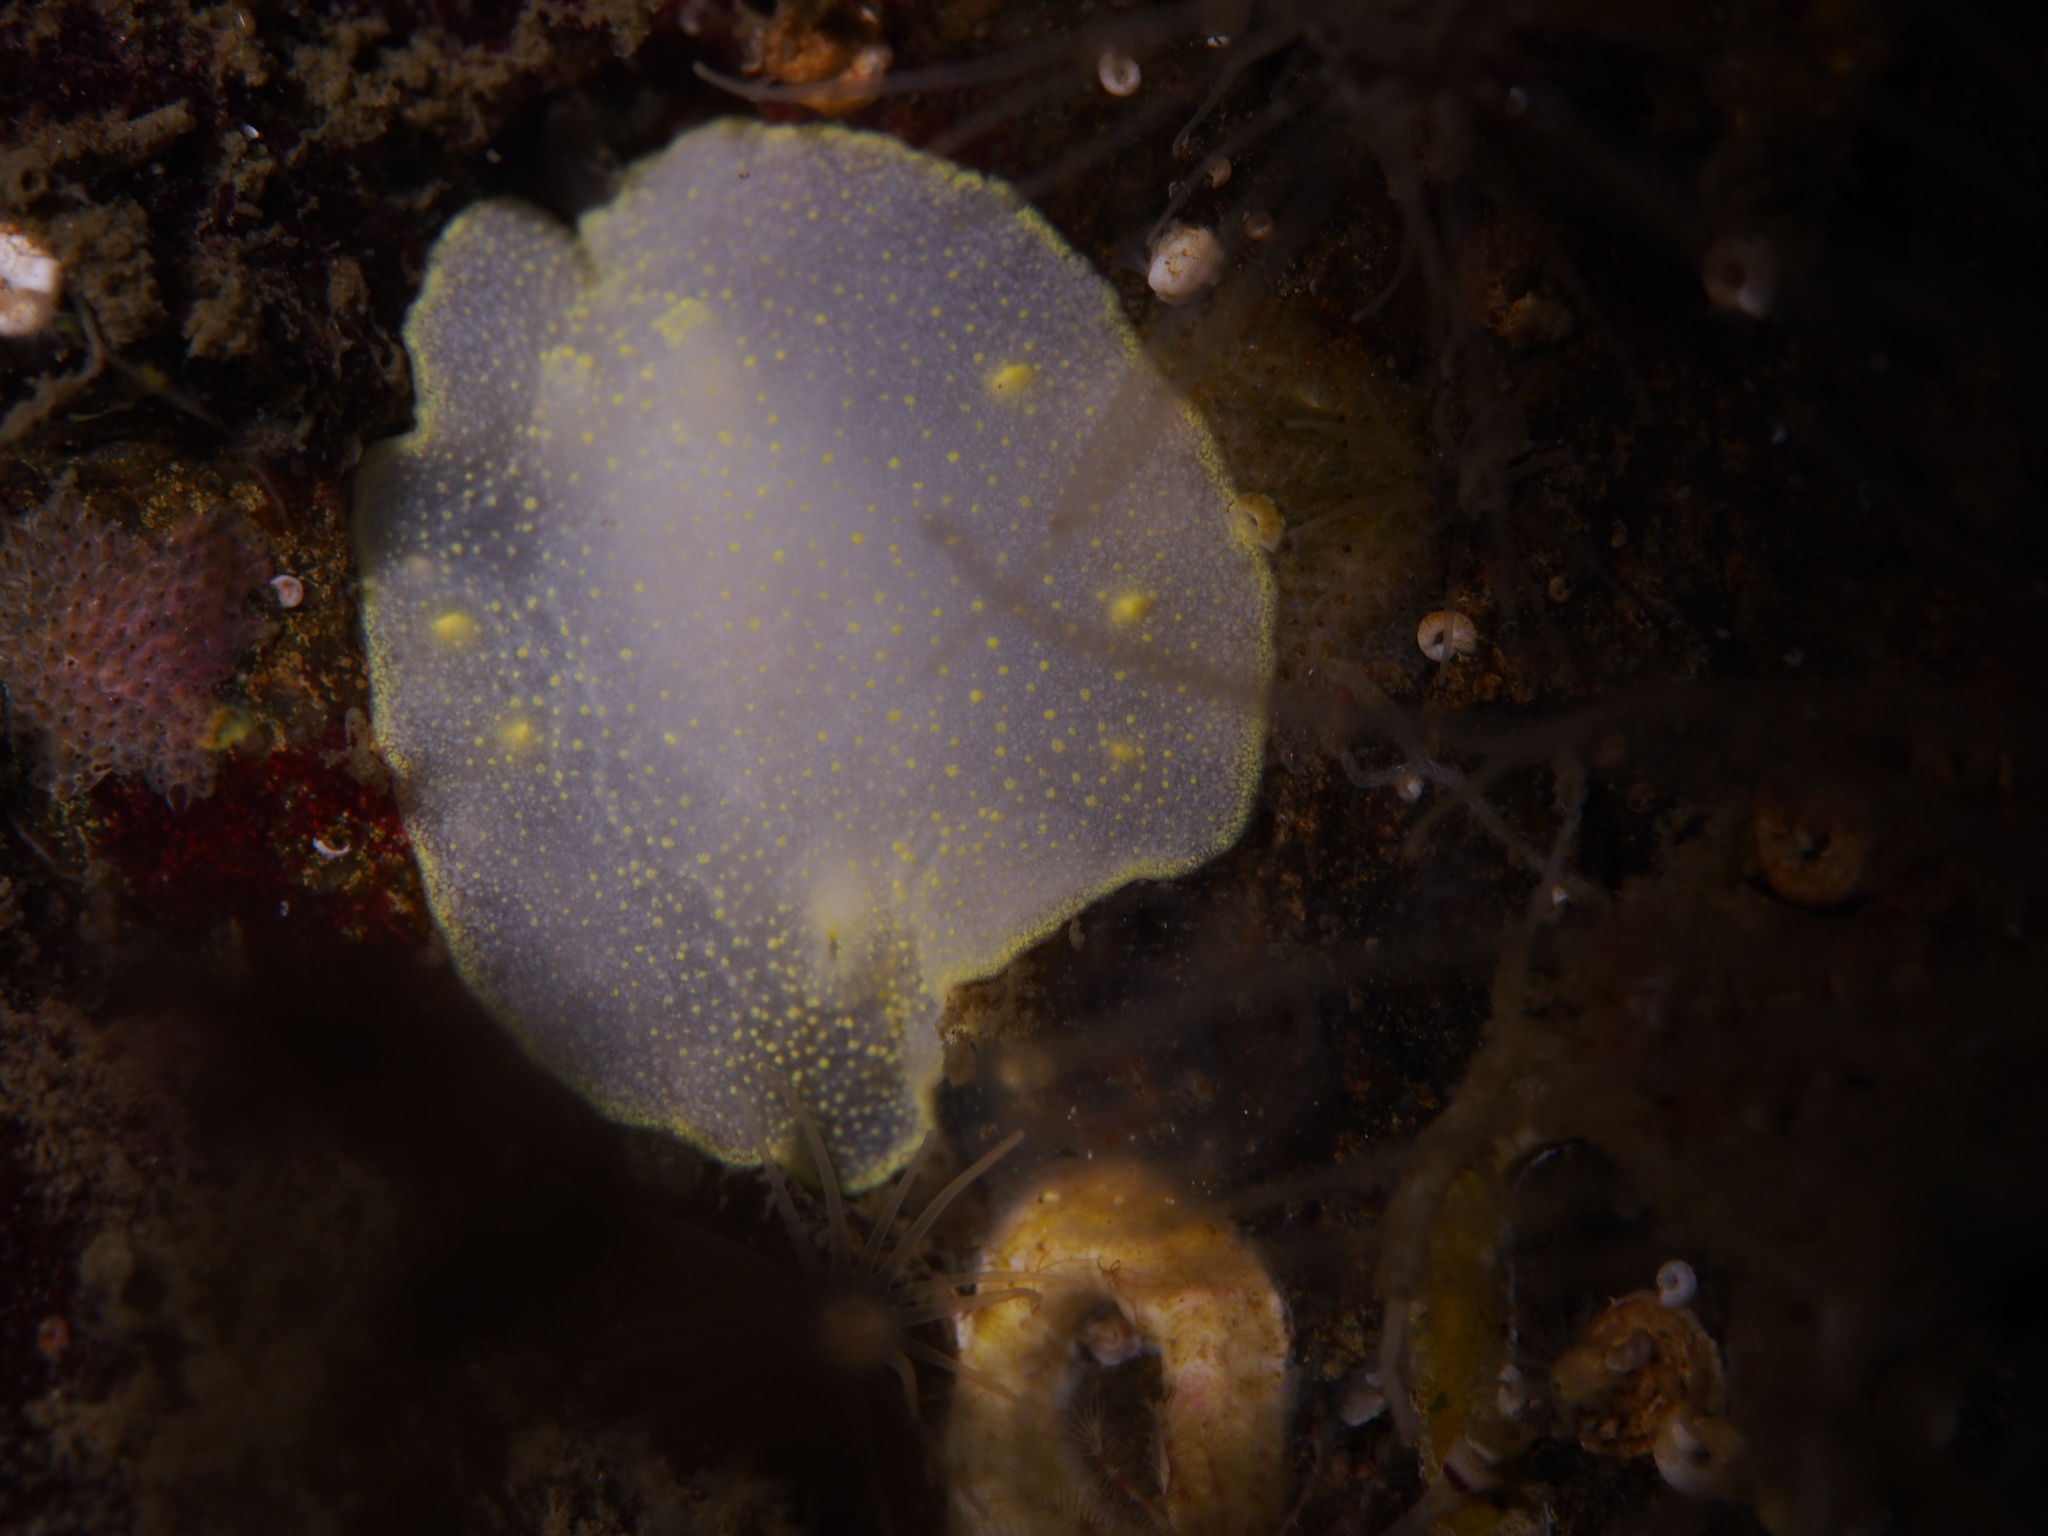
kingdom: Animalia
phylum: Mollusca
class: Gastropoda
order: Nudibranchia
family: Cadlinidae
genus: Cadlina
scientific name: Cadlina laevis
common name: White atlantic cadlina
